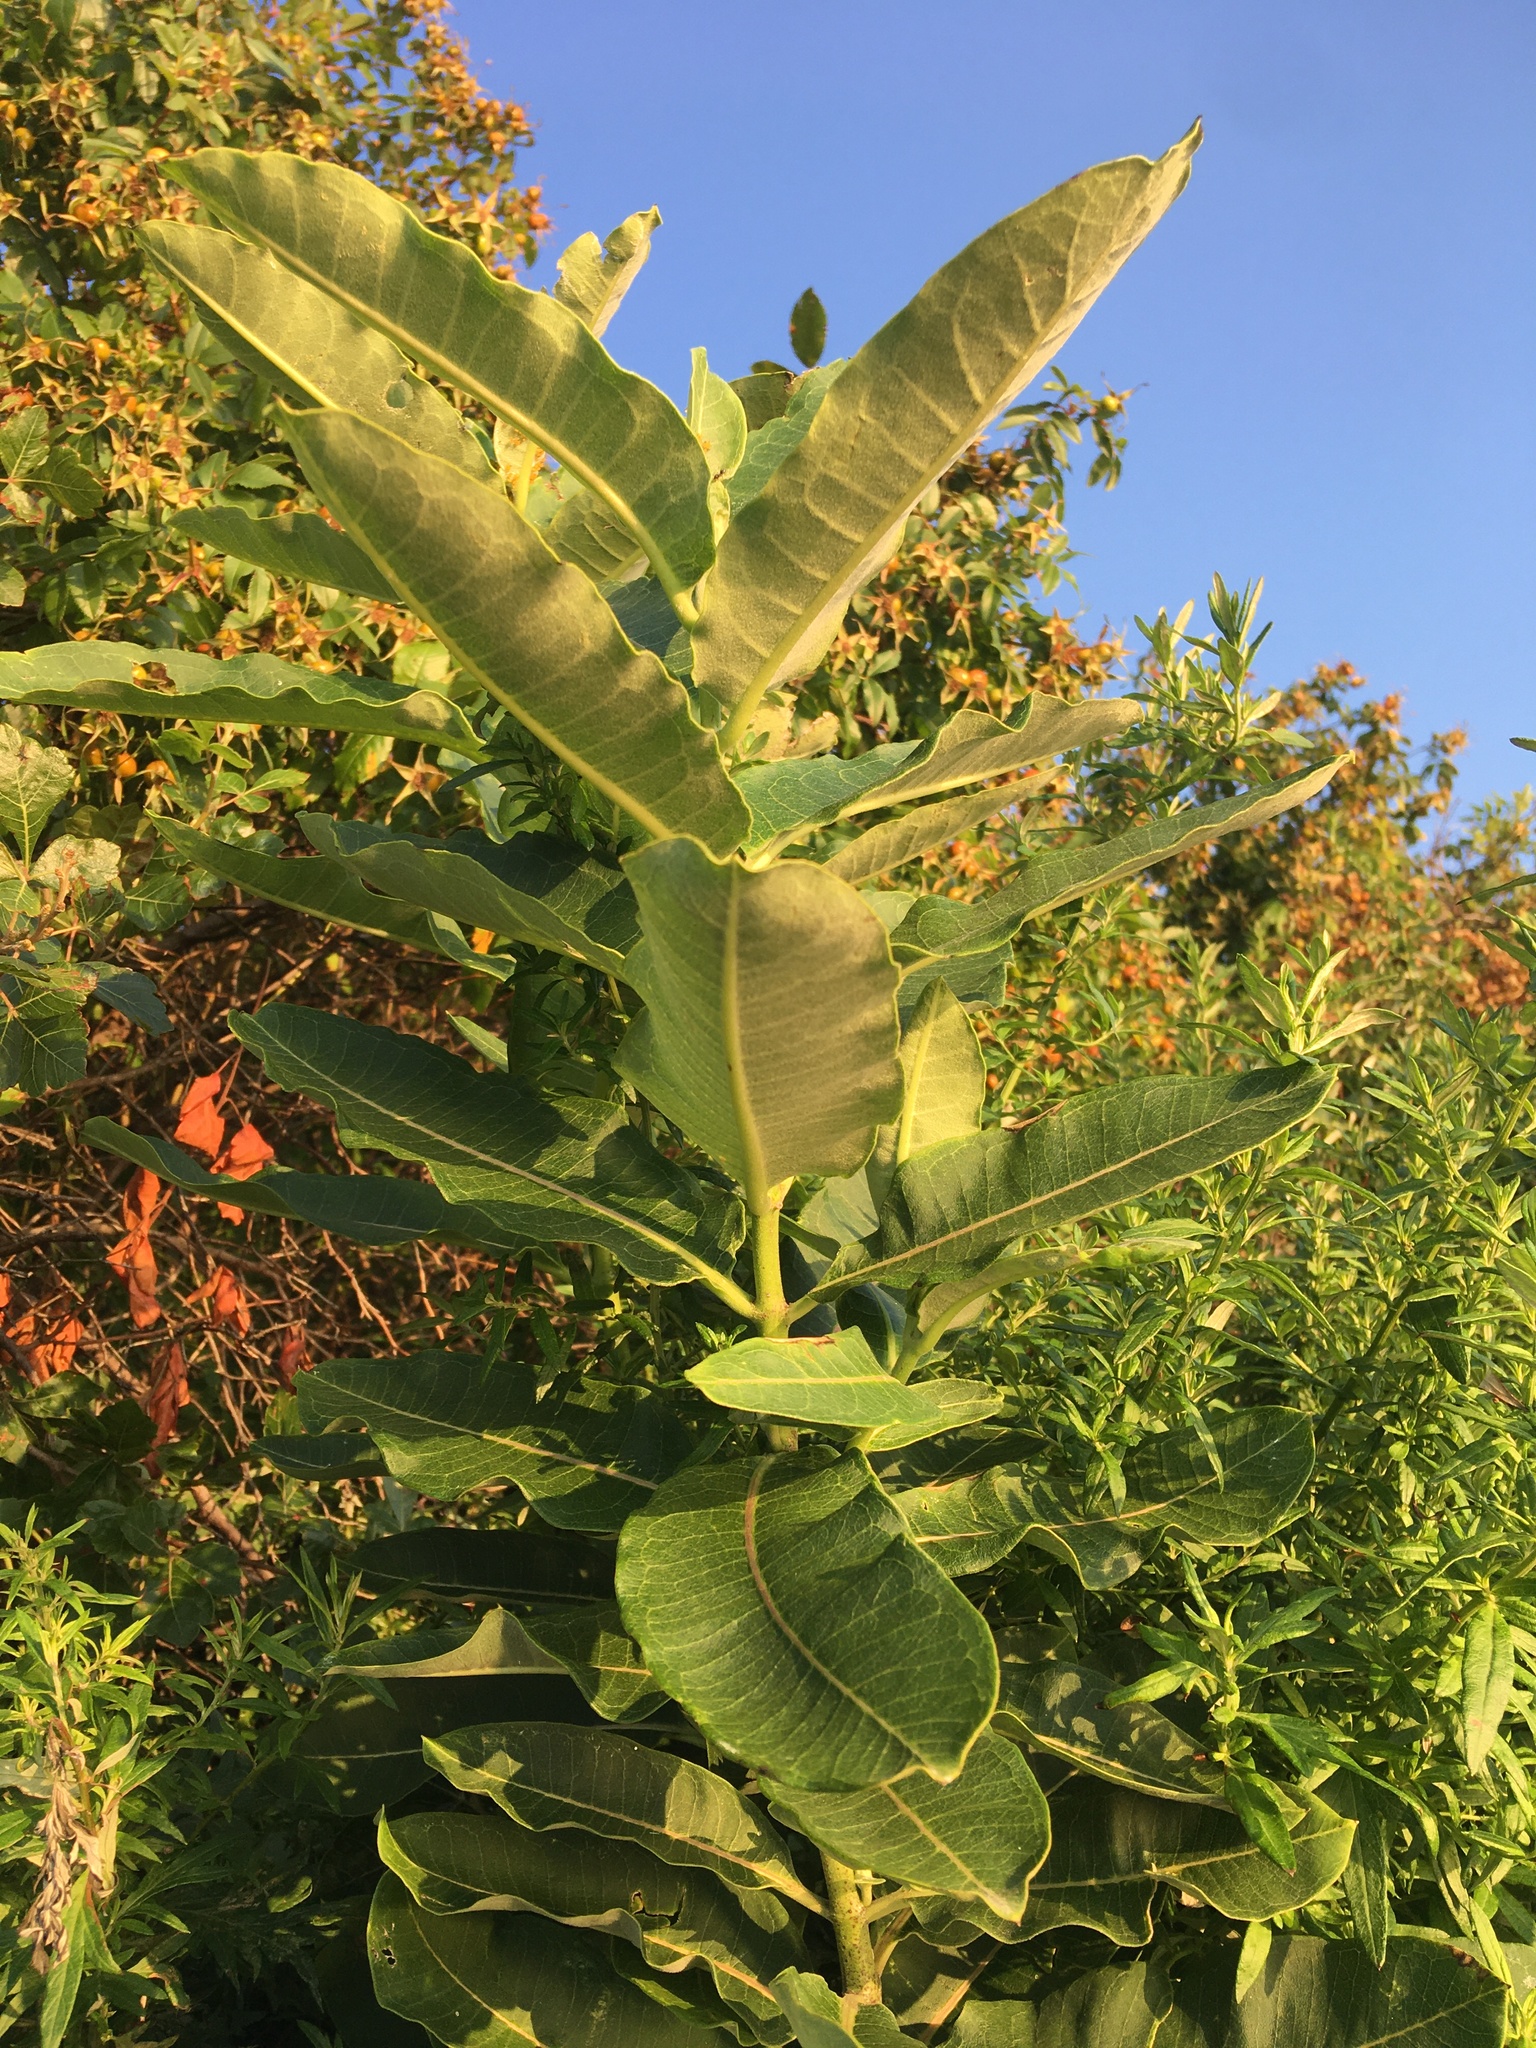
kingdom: Plantae
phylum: Tracheophyta
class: Magnoliopsida
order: Gentianales
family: Apocynaceae
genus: Asclepias
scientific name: Asclepias syriaca
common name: Common milkweed
